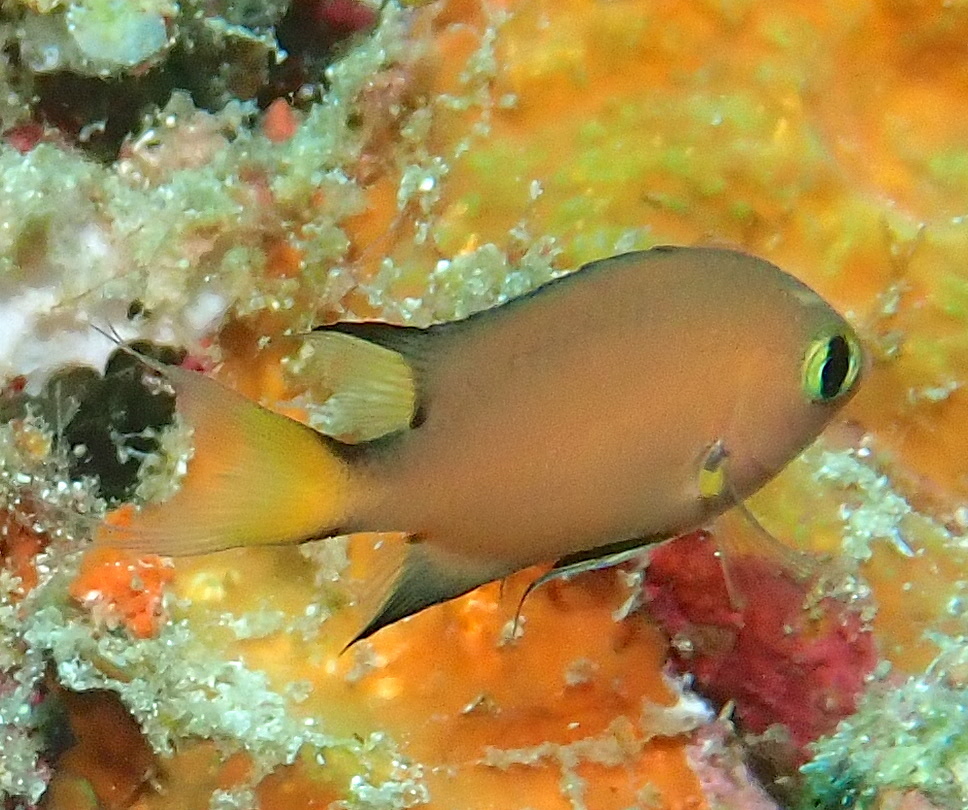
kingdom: Animalia
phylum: Chordata
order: Perciformes
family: Pomacentridae
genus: Chromis
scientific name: Chromis atripes
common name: Dark-fin chromis
